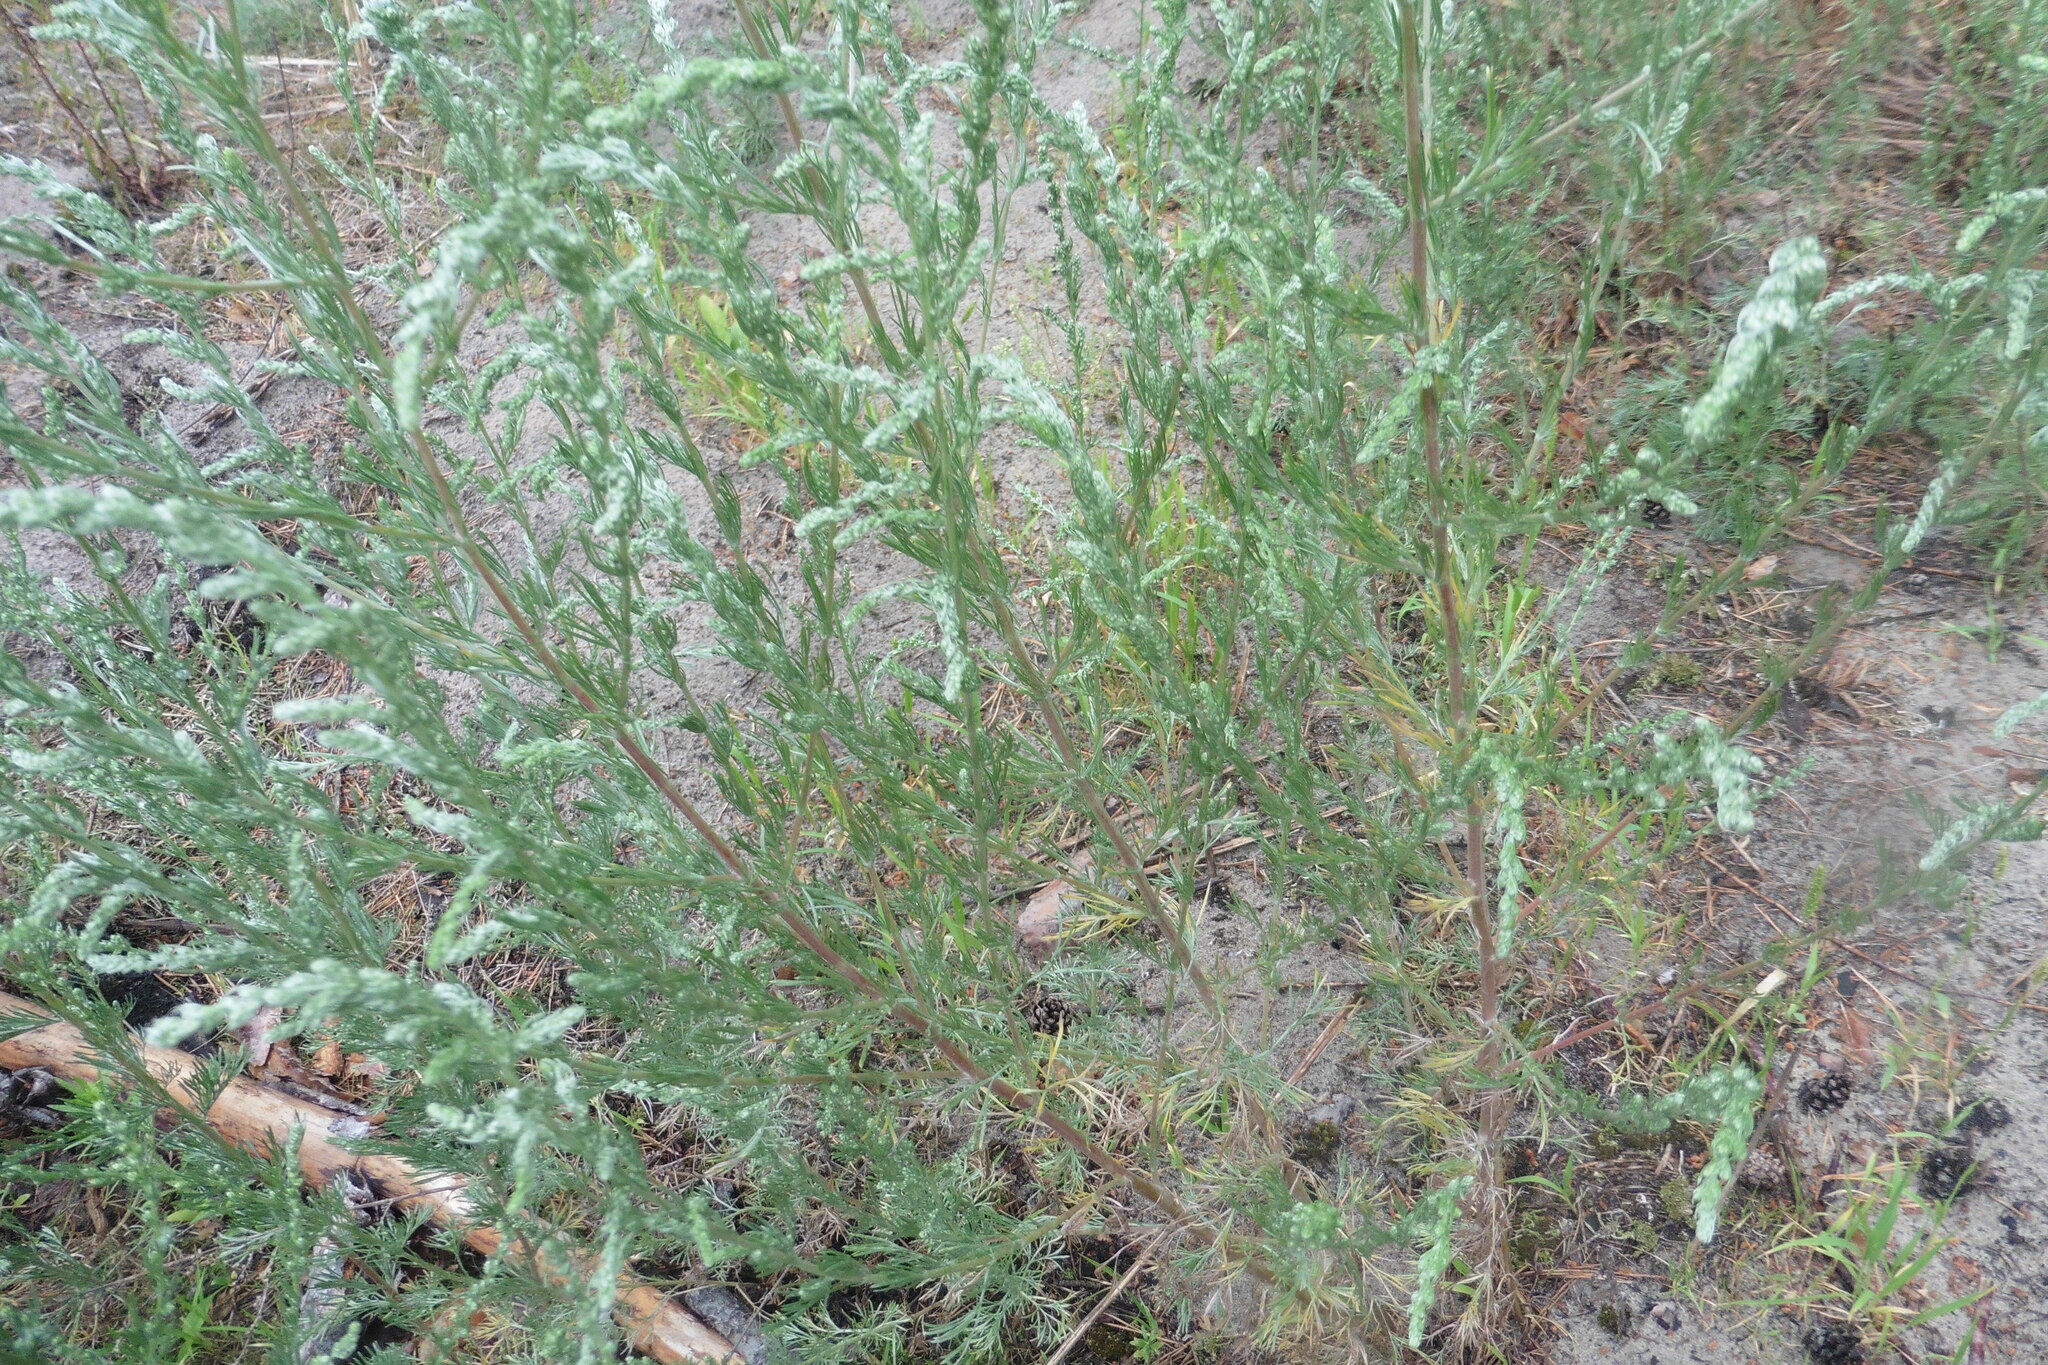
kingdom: Plantae
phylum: Tracheophyta
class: Magnoliopsida
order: Asterales
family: Asteraceae
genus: Artemisia
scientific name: Artemisia campestris
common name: Field wormwood
